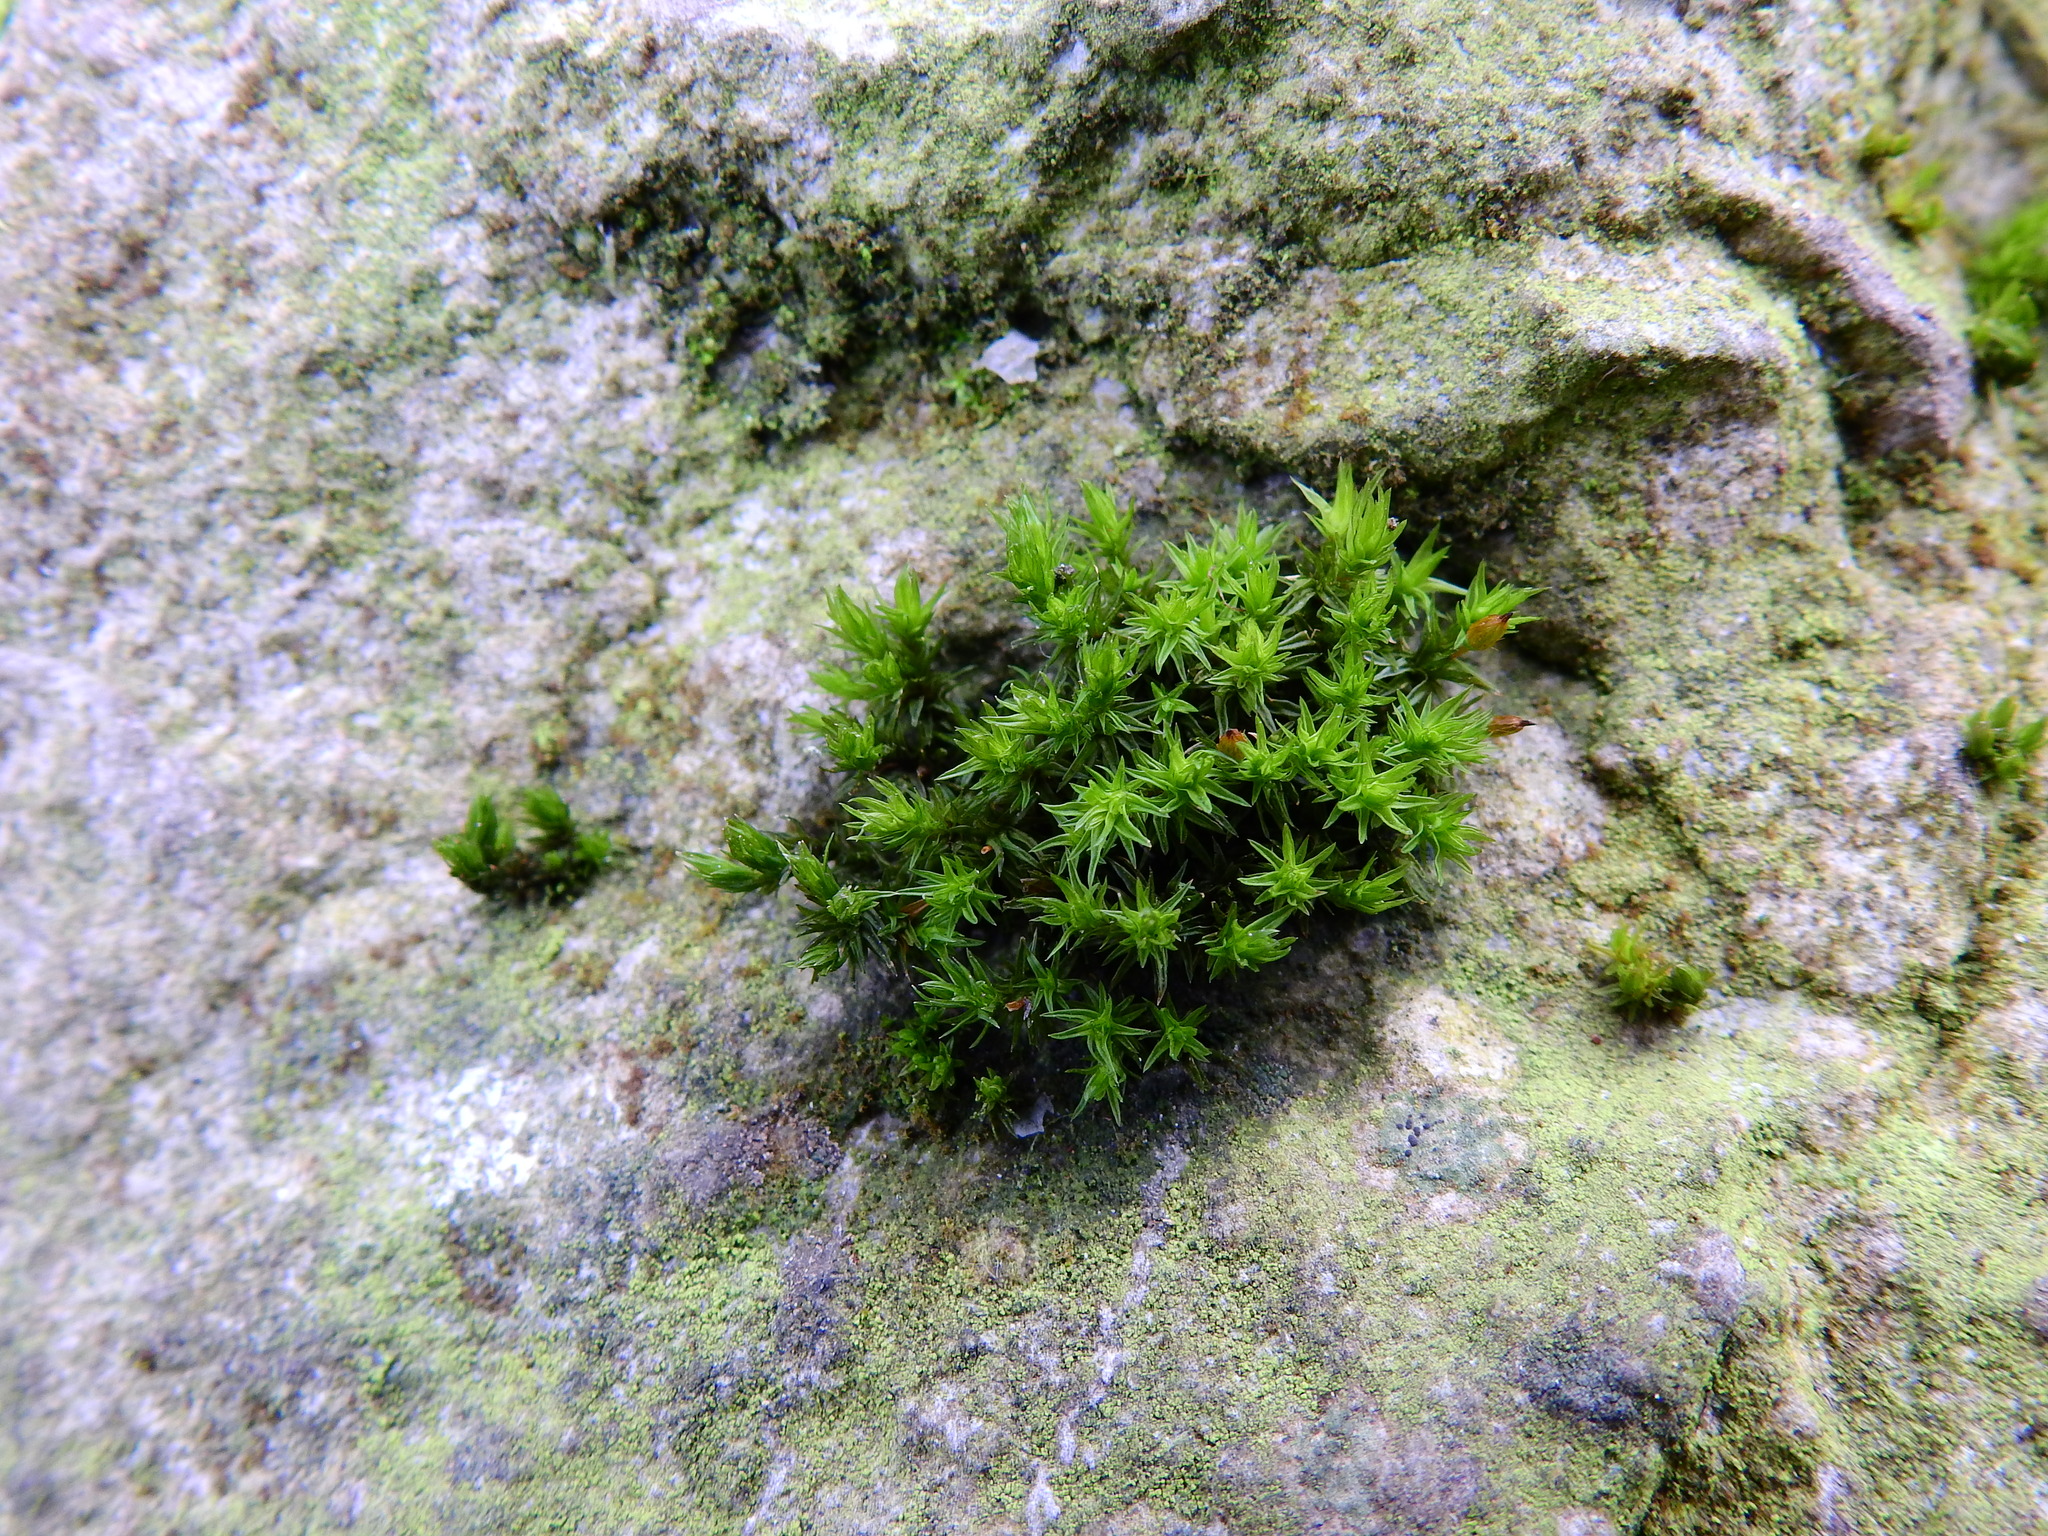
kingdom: Plantae
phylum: Bryophyta
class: Bryopsida
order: Orthotrichales
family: Orthotrichaceae
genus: Orthotrichum
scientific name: Orthotrichum anomalum
